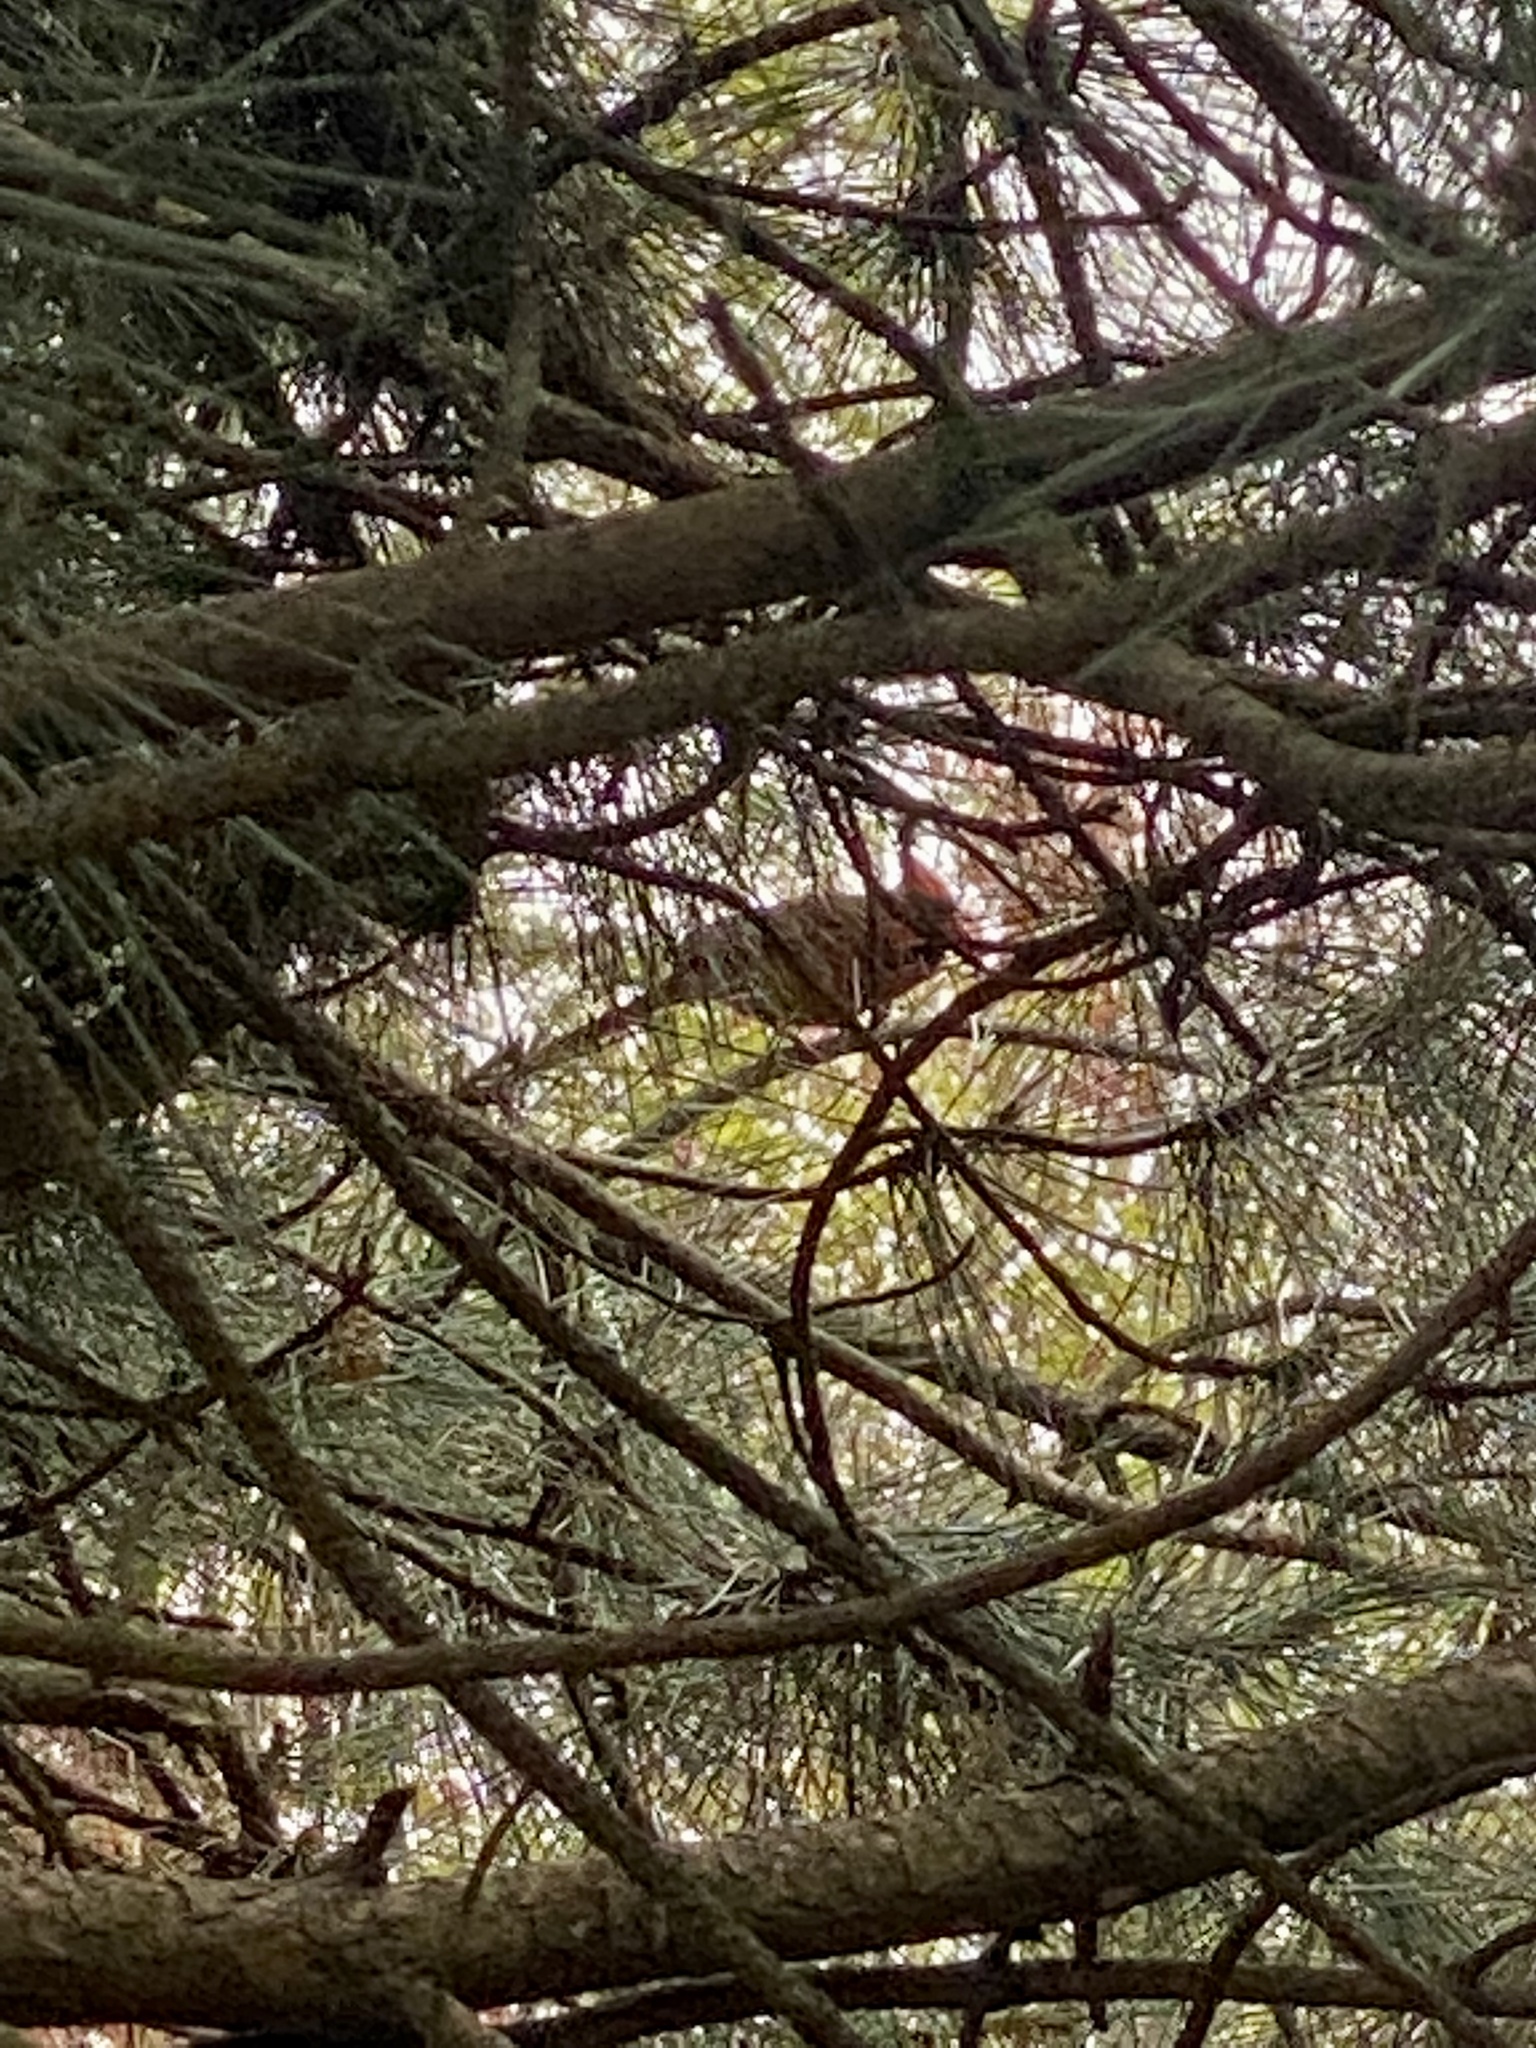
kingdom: Animalia
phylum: Chordata
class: Aves
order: Passeriformes
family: Cardinalidae
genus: Cardinalis
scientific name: Cardinalis cardinalis
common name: Northern cardinal
